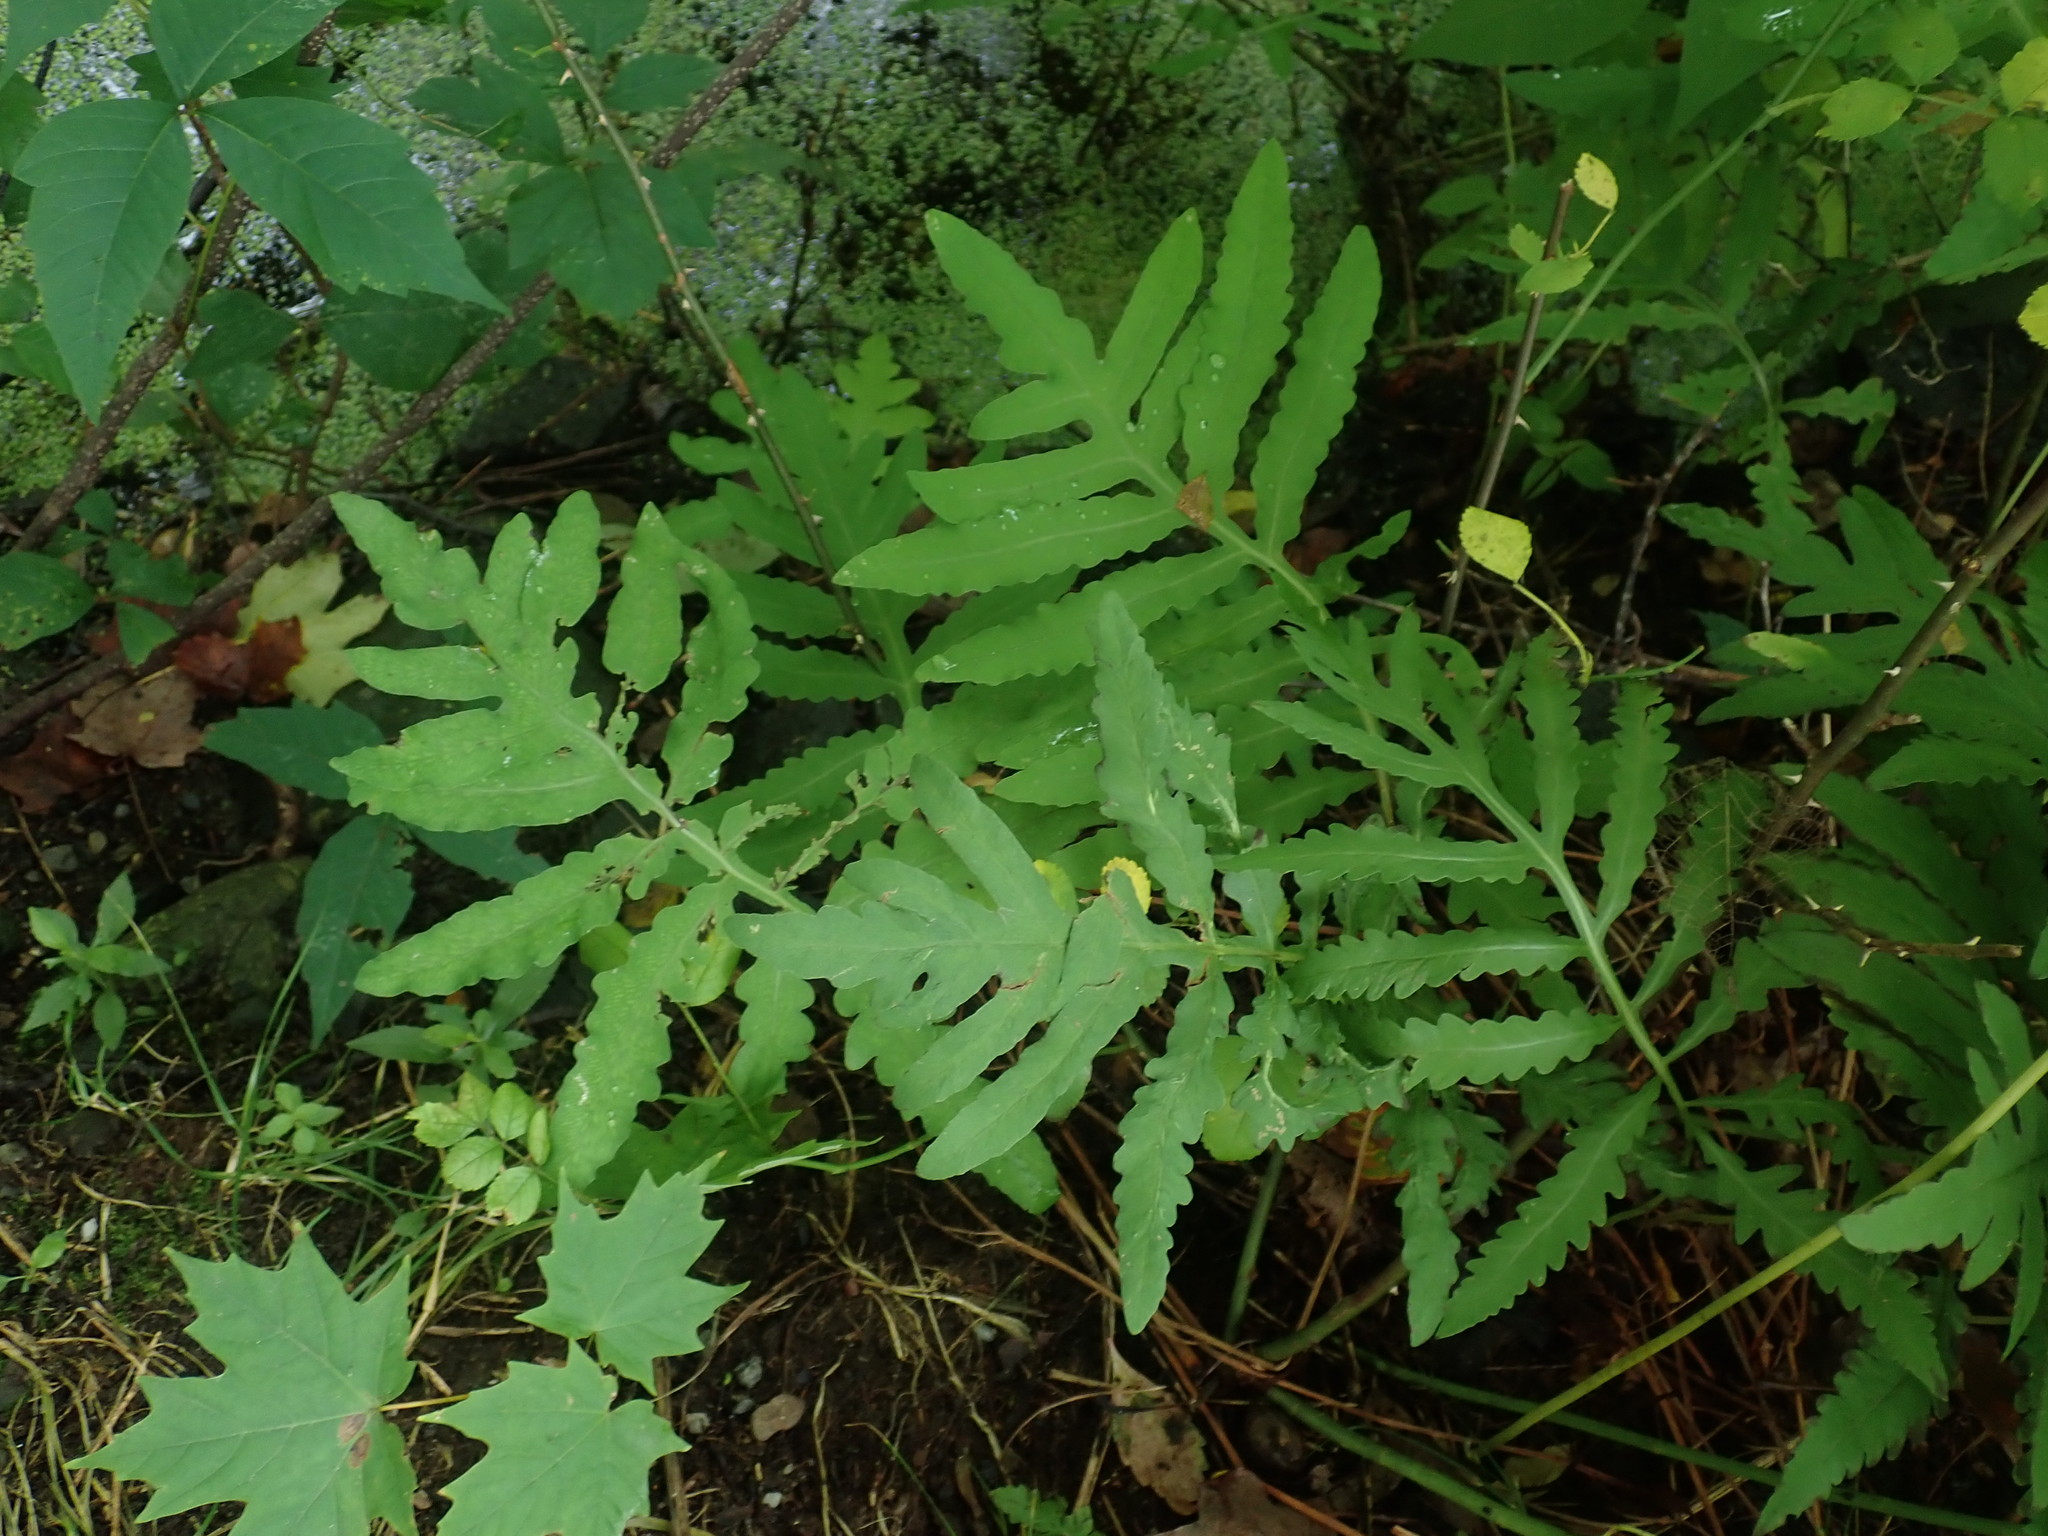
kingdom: Plantae
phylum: Tracheophyta
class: Polypodiopsida
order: Polypodiales
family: Onocleaceae
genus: Onoclea
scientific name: Onoclea sensibilis
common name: Sensitive fern
